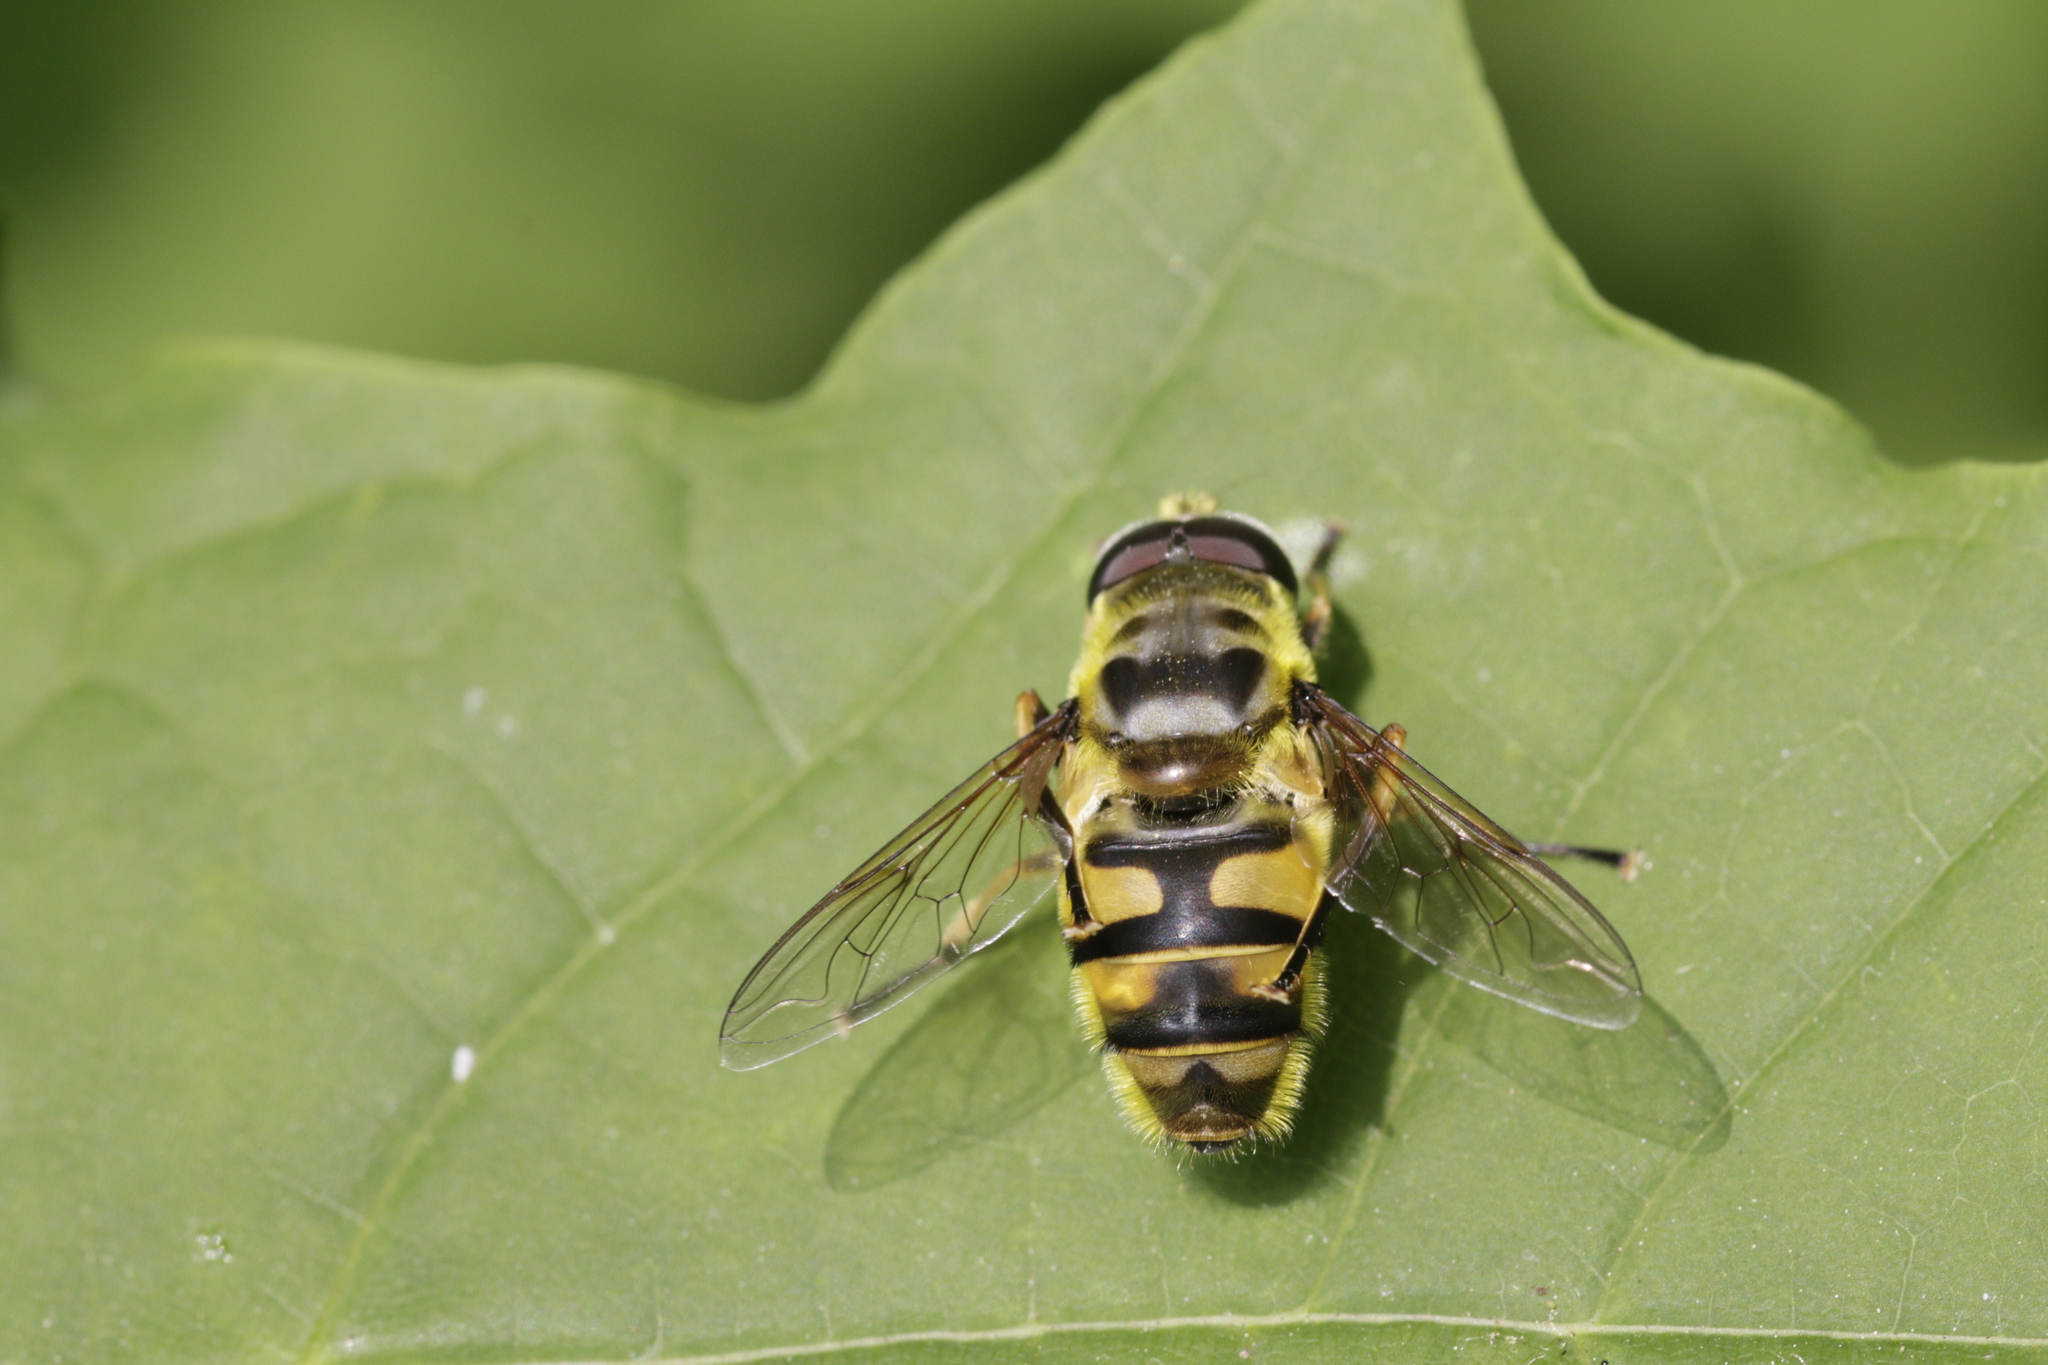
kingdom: Animalia
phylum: Arthropoda
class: Insecta
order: Diptera
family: Syrphidae
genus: Myathropa
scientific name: Myathropa florea
